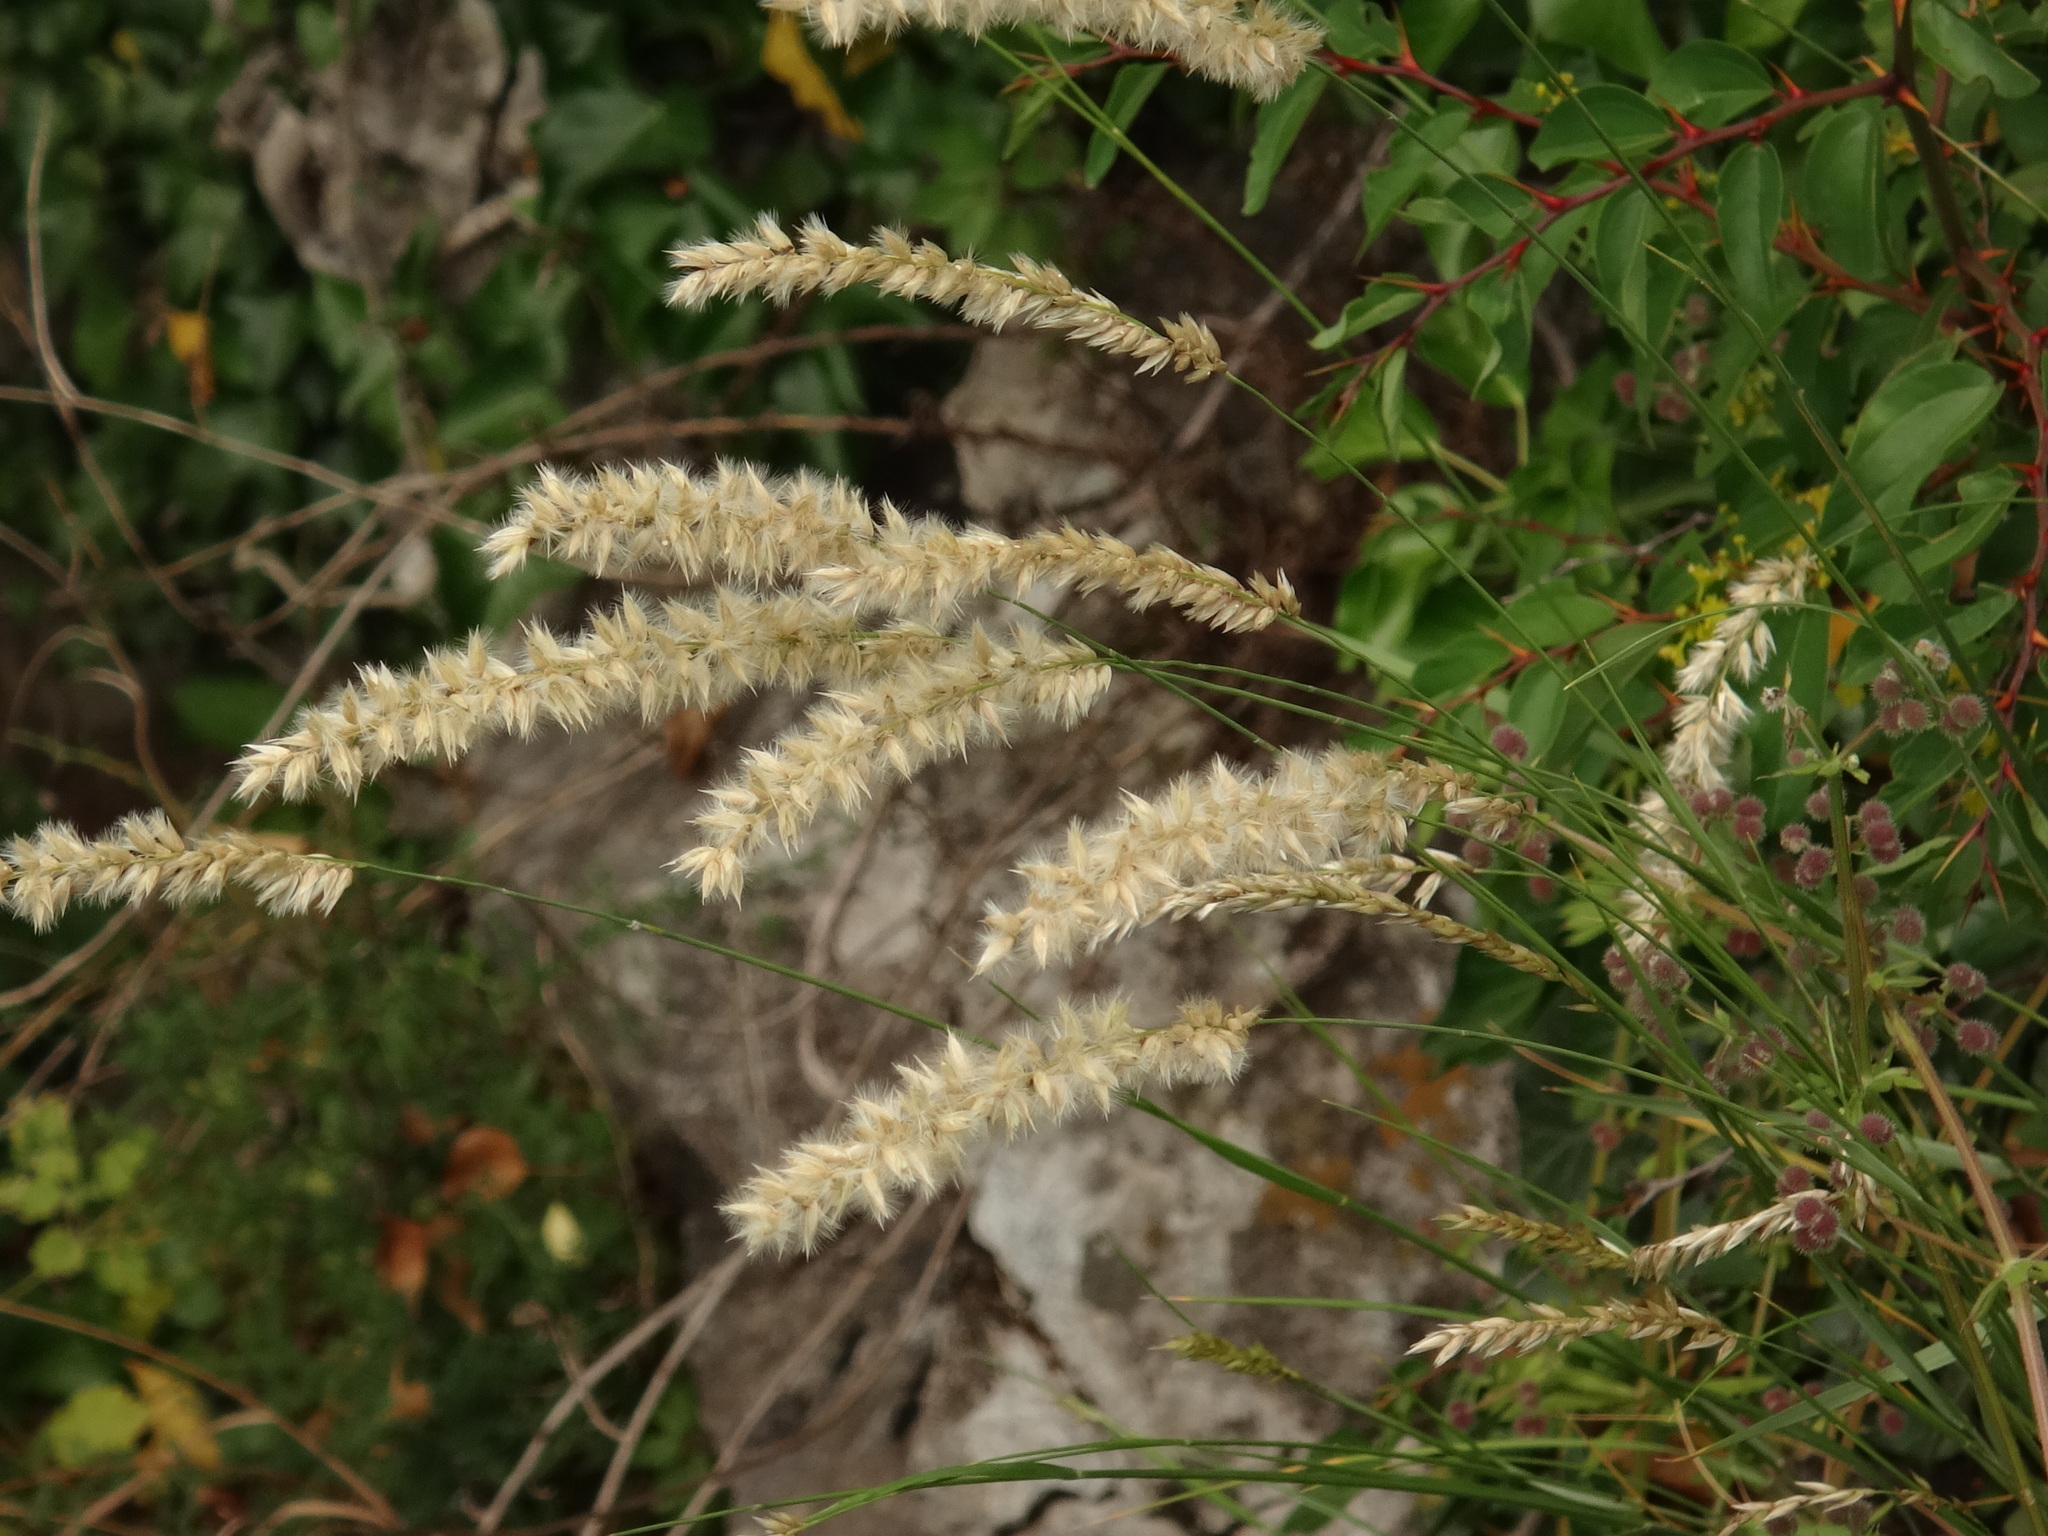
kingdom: Plantae
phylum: Tracheophyta
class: Liliopsida
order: Poales
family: Poaceae
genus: Melica
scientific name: Melica ciliata
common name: Hairy melicgrass
